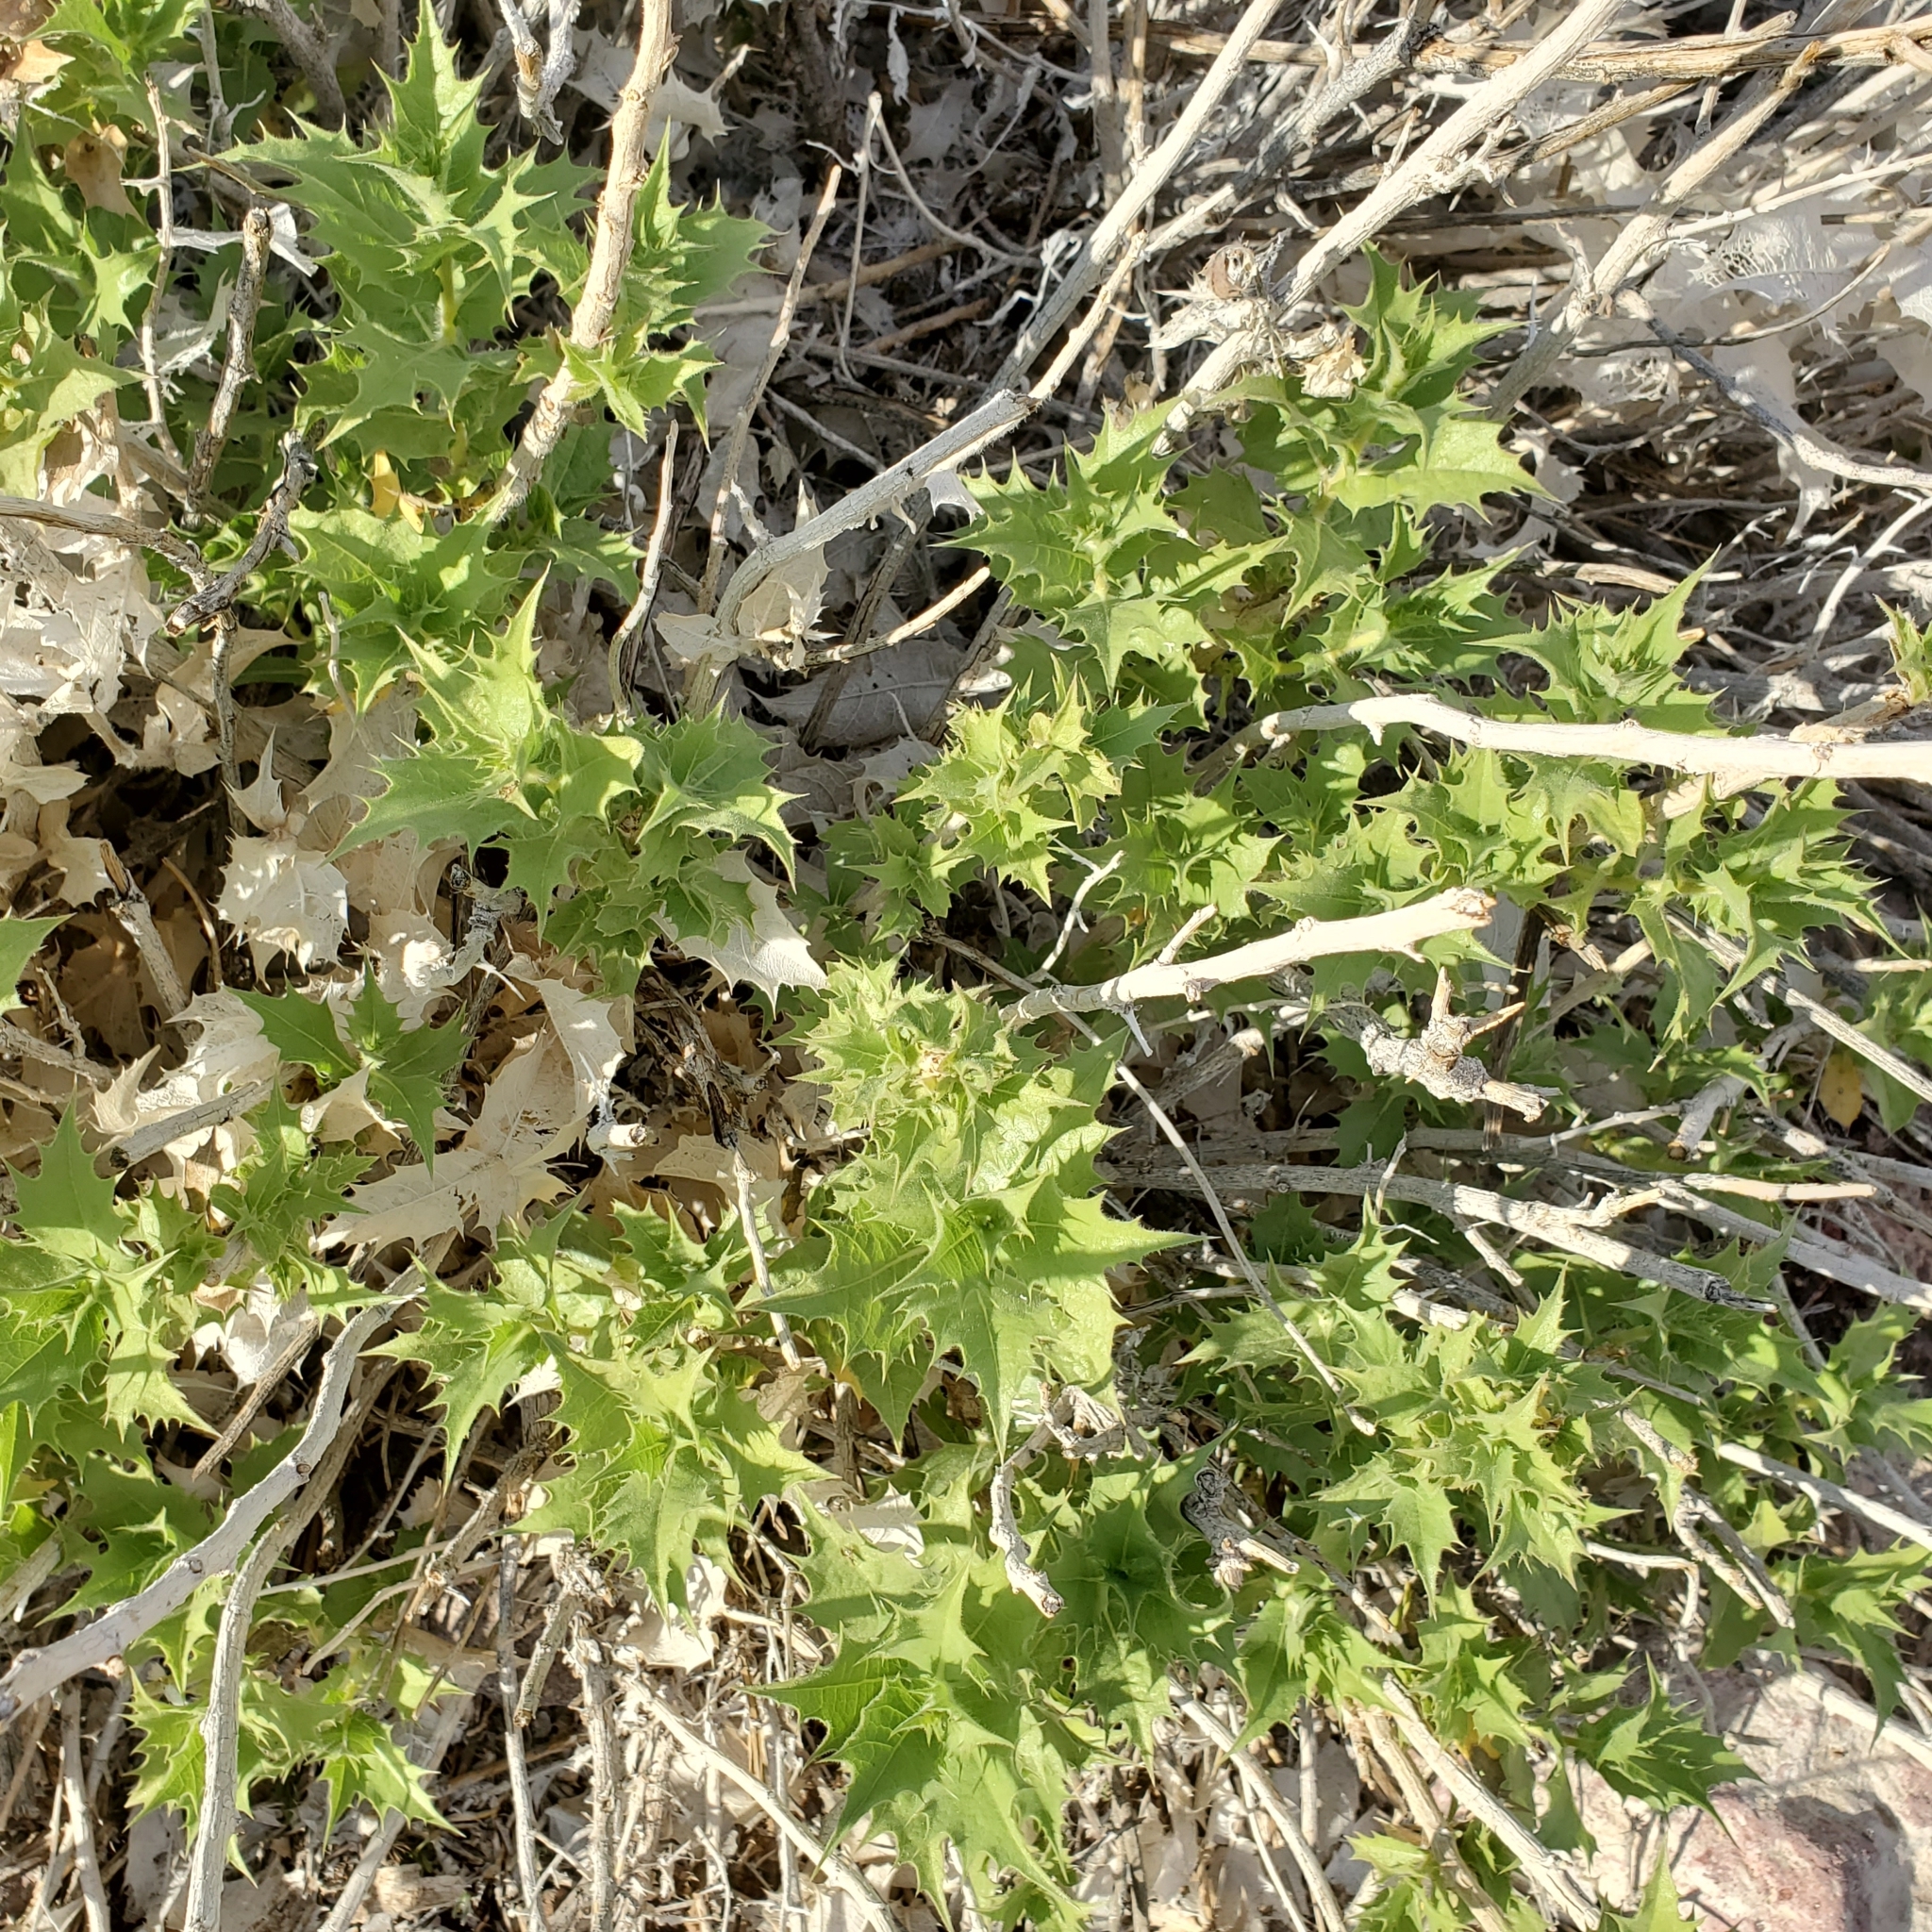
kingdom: Plantae
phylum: Tracheophyta
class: Magnoliopsida
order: Asterales
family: Asteraceae
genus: Ambrosia
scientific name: Ambrosia ilicifolia
